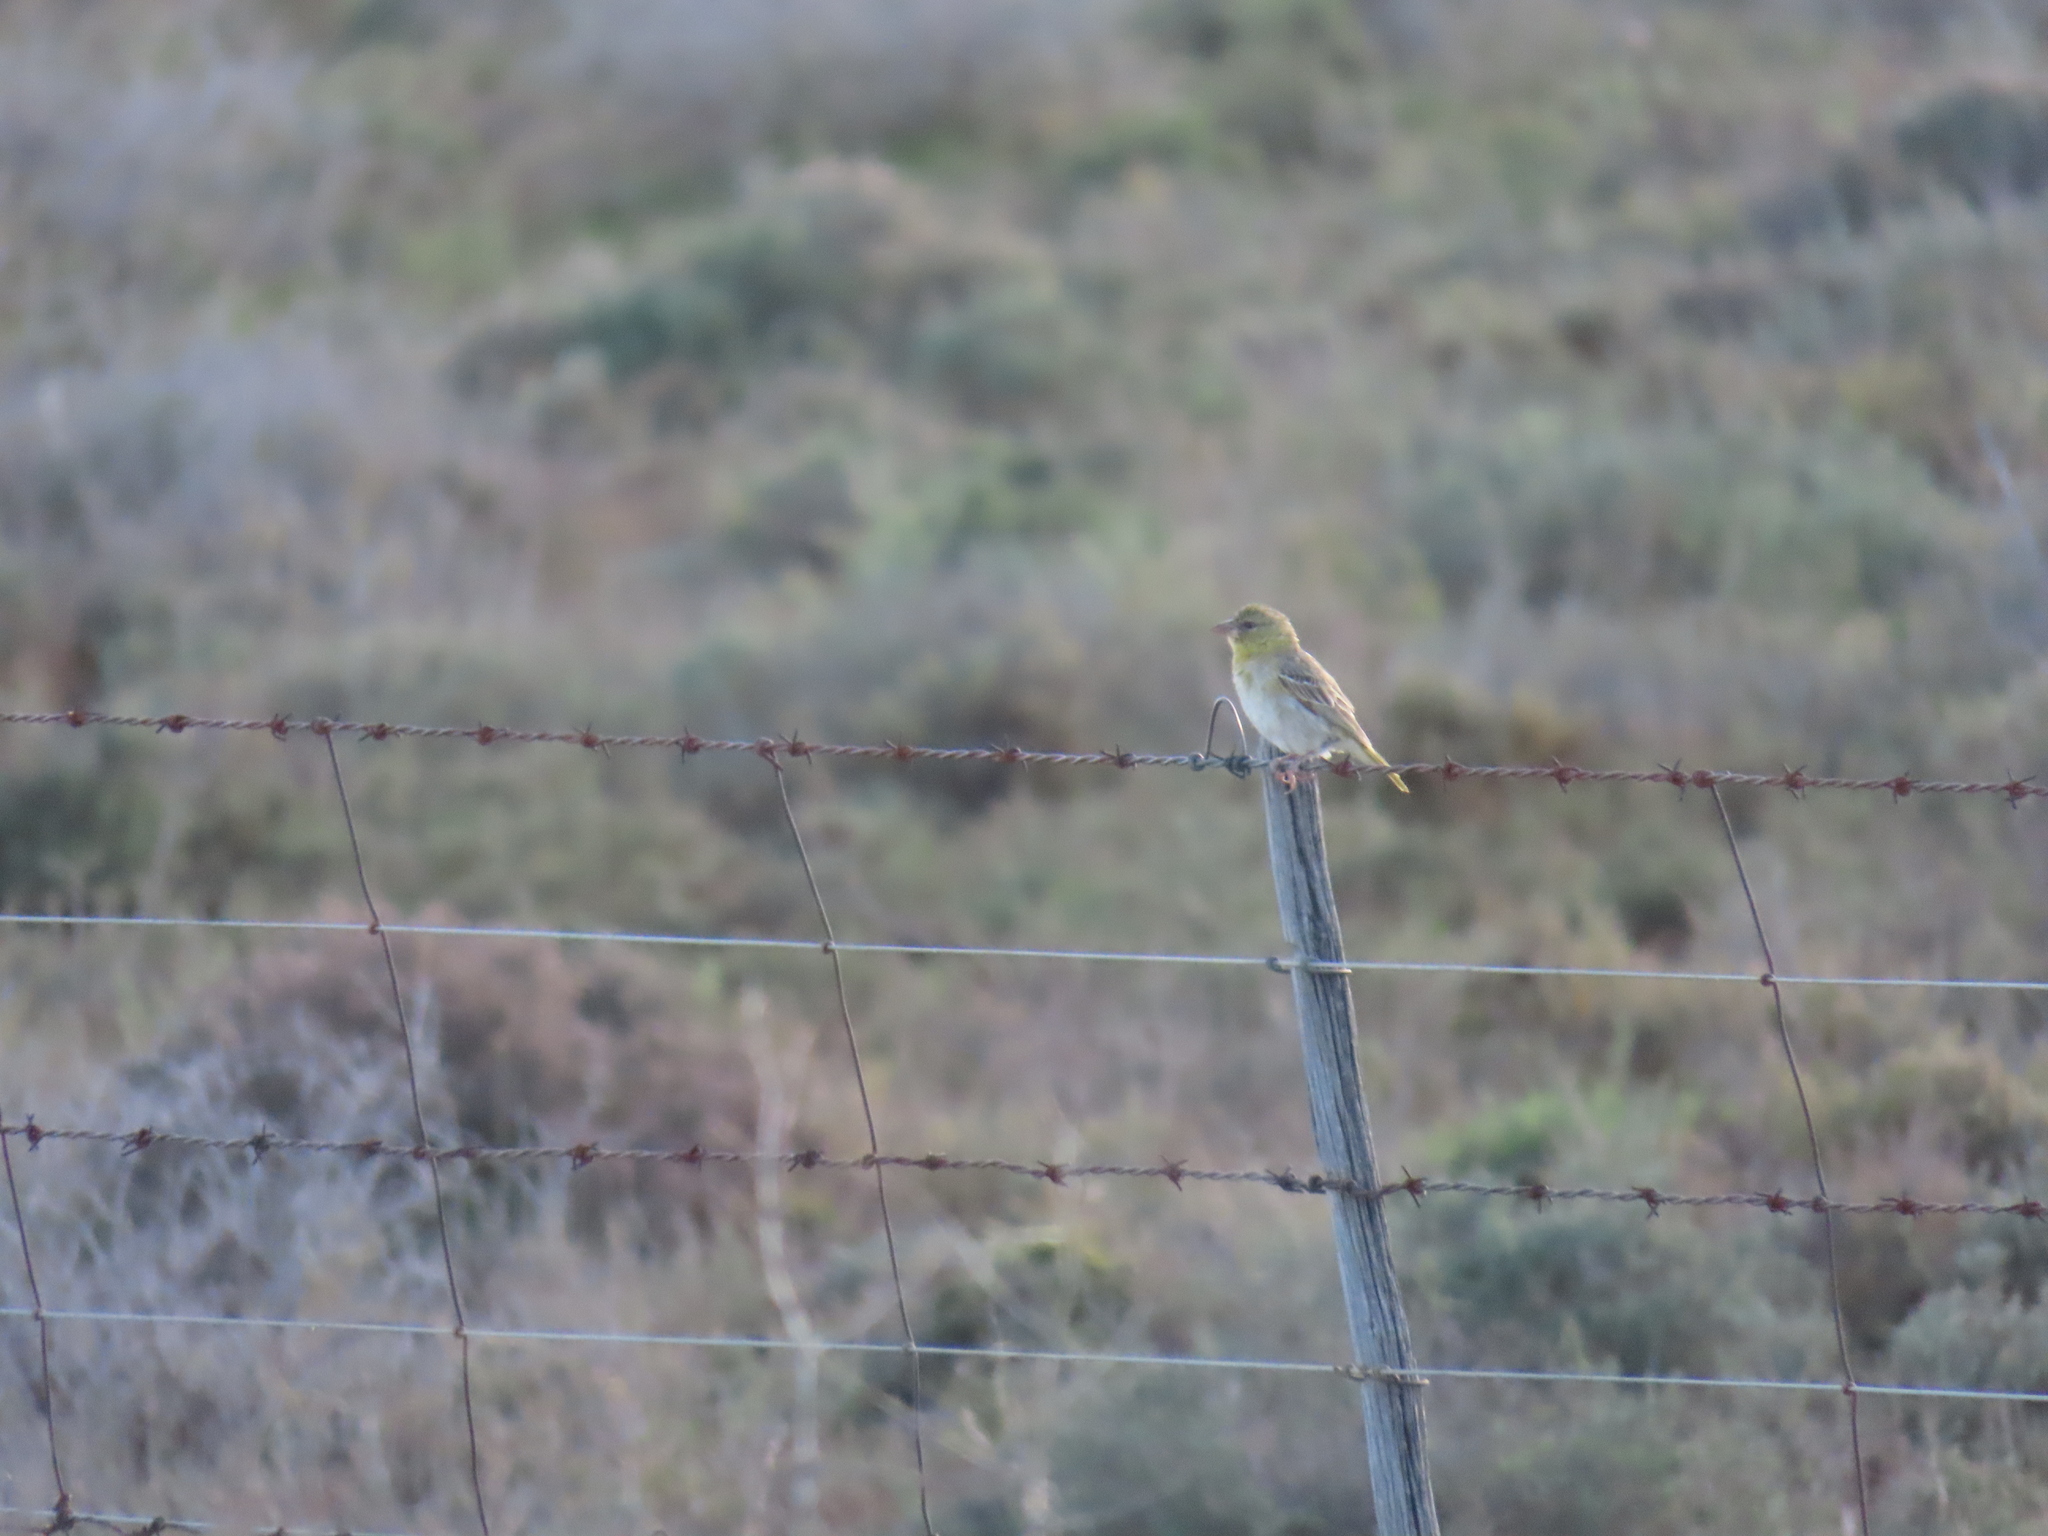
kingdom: Animalia
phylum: Chordata
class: Aves
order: Passeriformes
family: Fringillidae
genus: Crithagra
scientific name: Crithagra flaviventris
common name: Yellow canary
